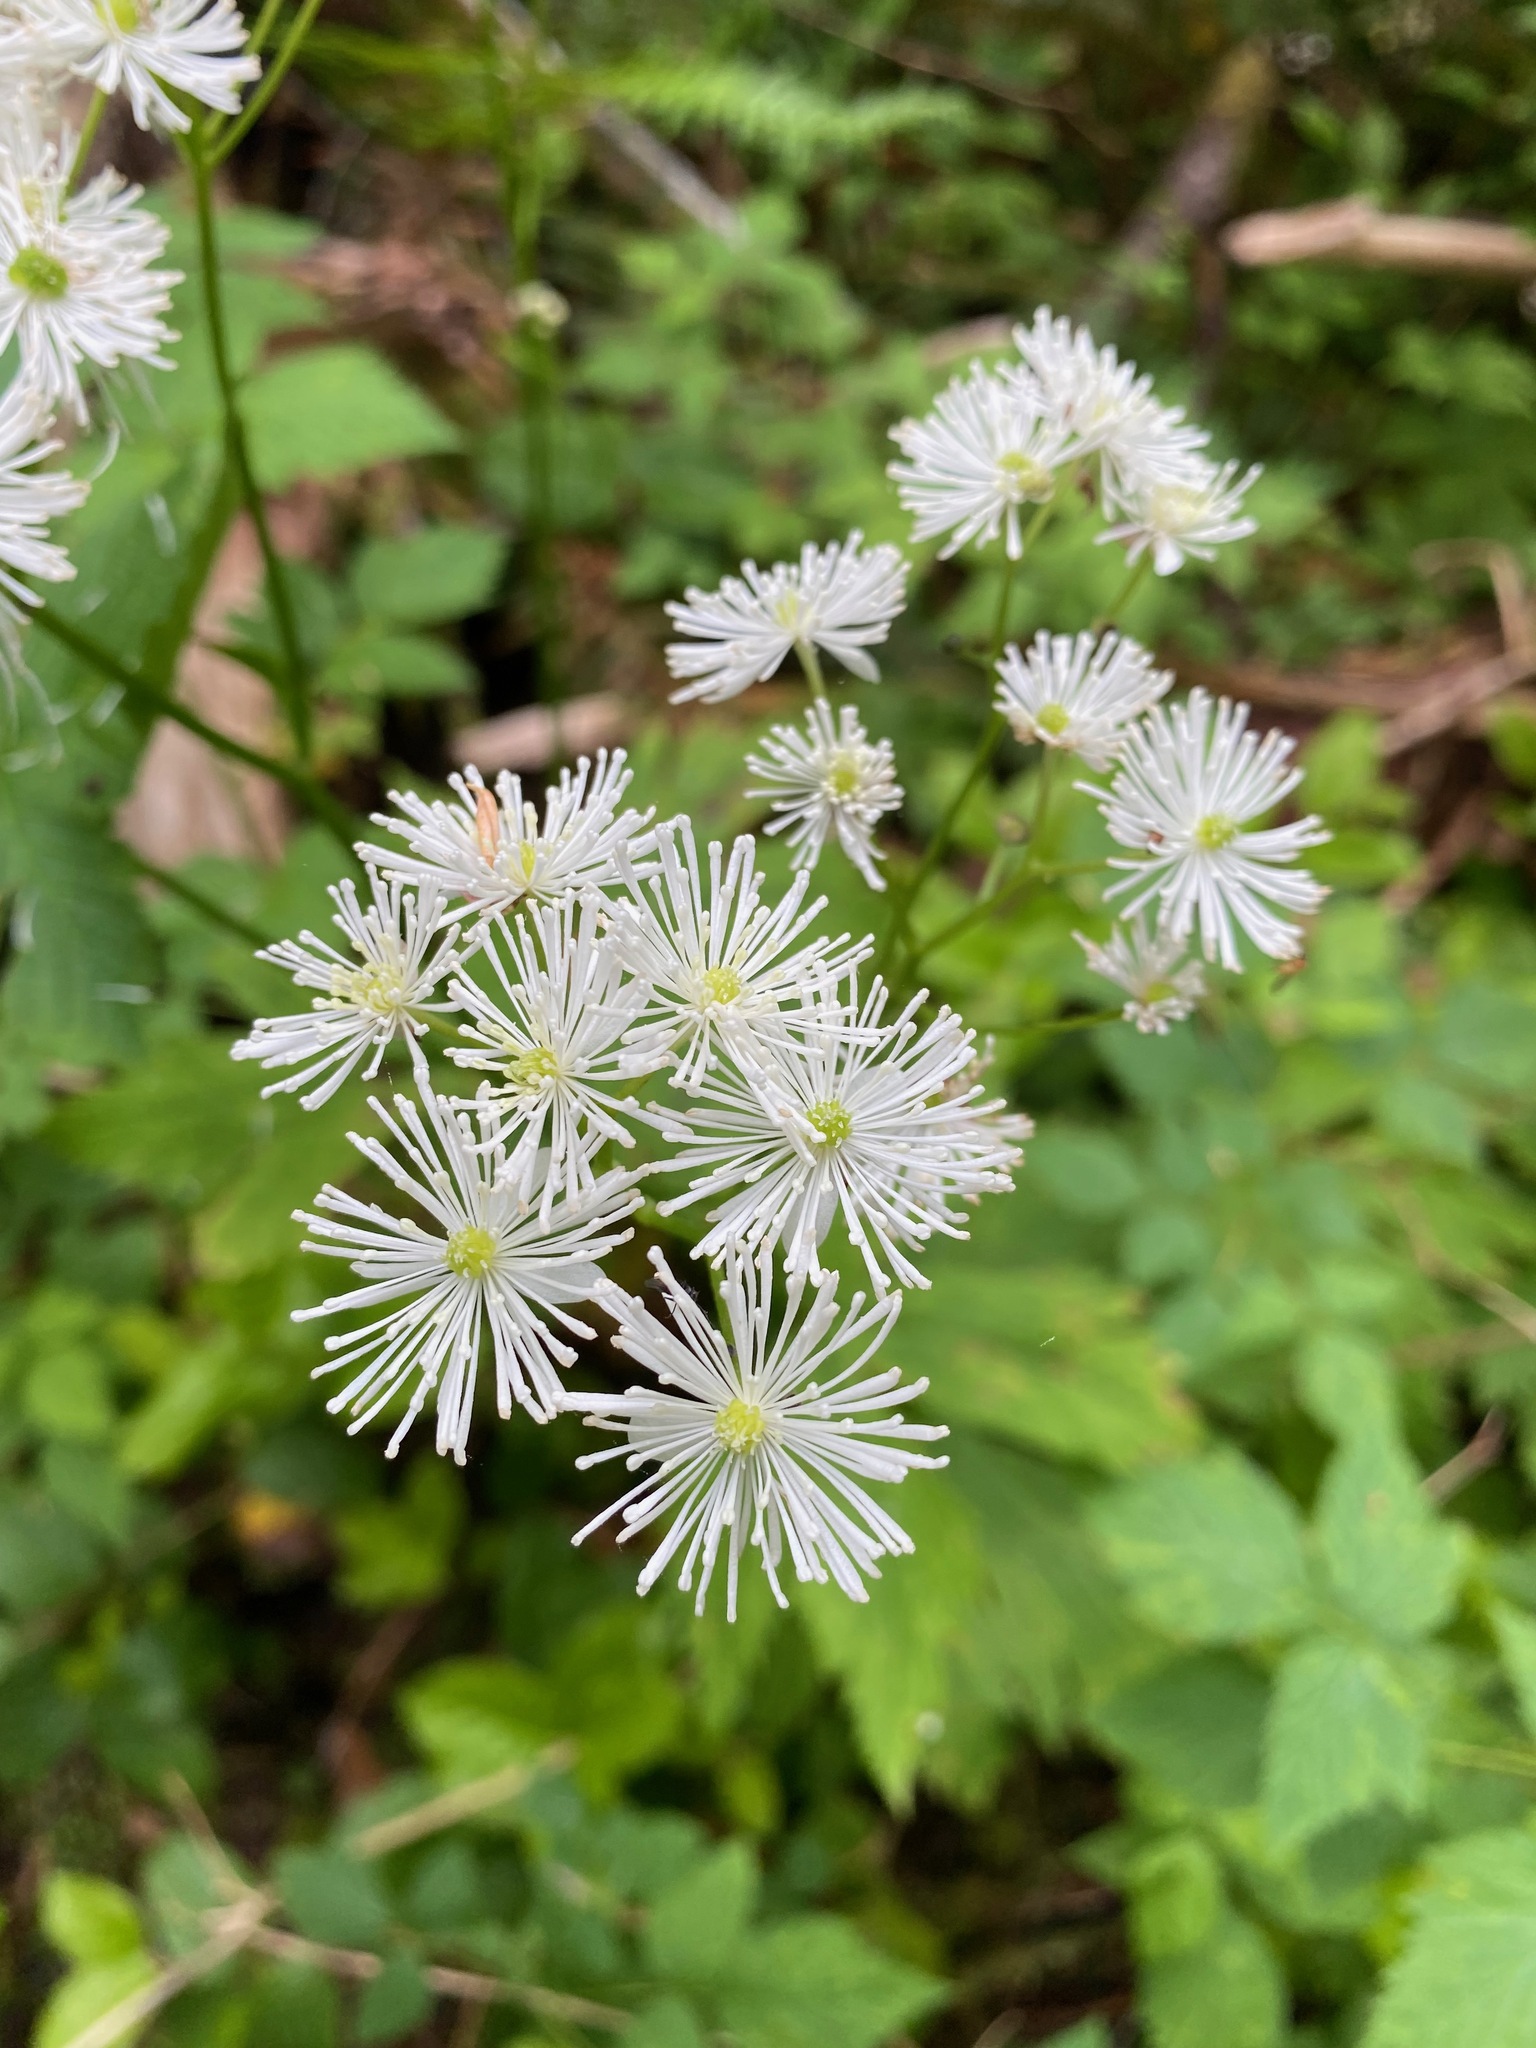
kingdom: Plantae
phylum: Tracheophyta
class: Magnoliopsida
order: Ranunculales
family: Ranunculaceae
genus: Trautvetteria
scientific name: Trautvetteria carolinensis
